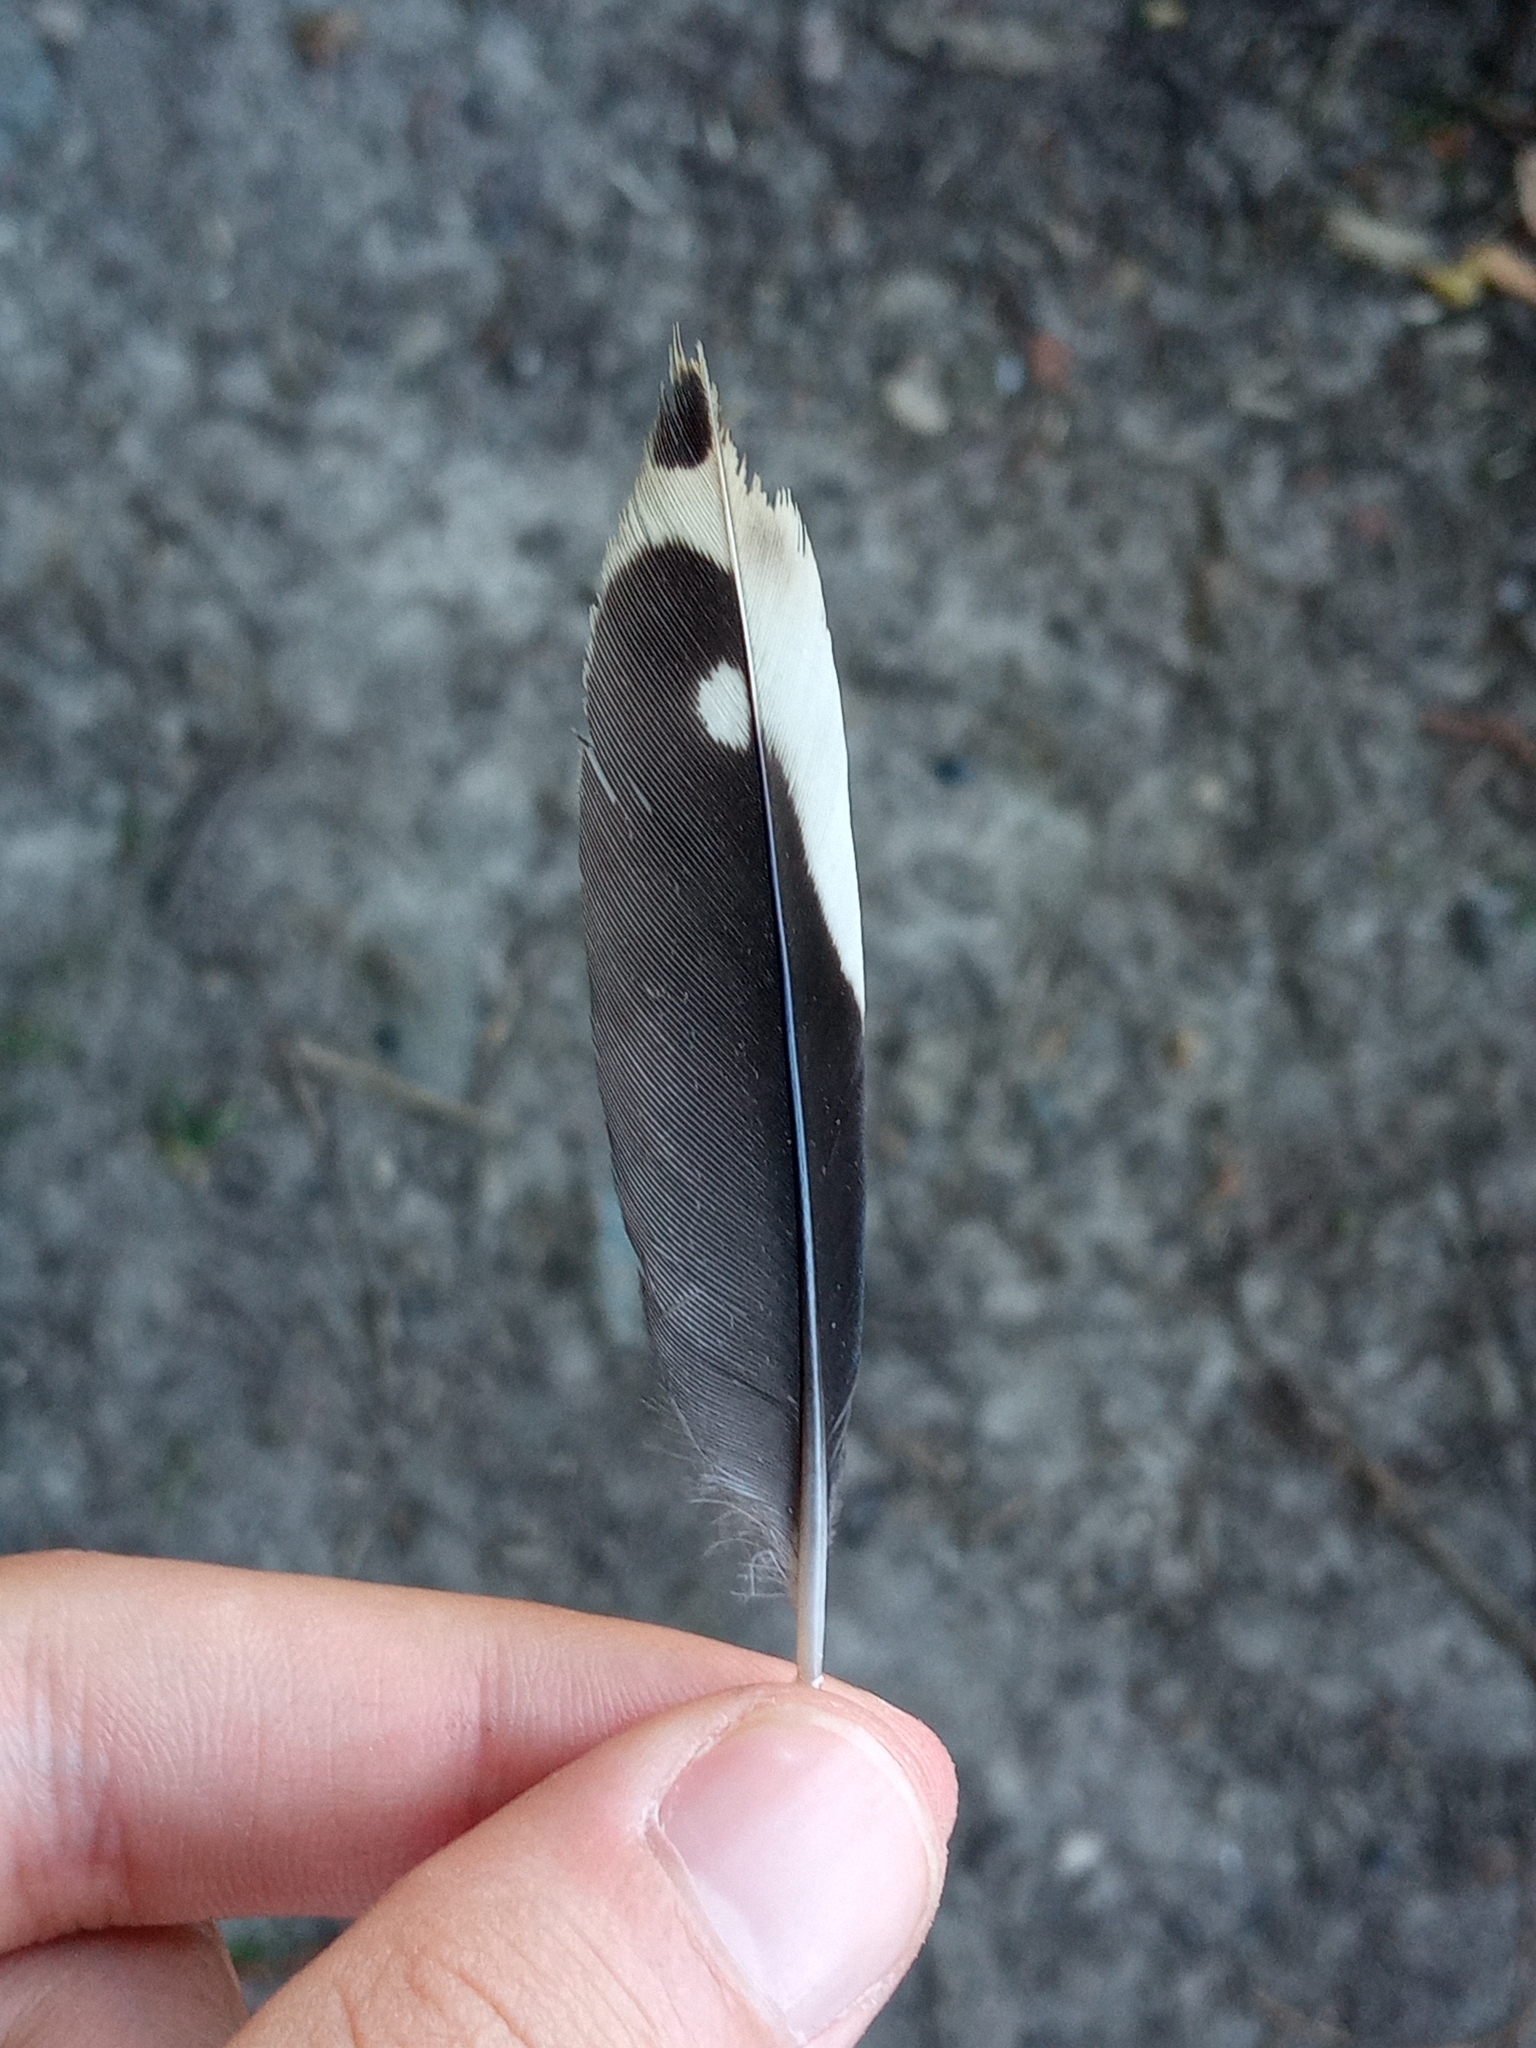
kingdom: Animalia
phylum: Chordata
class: Aves
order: Piciformes
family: Picidae
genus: Dendrocopos
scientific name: Dendrocopos major
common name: Great spotted woodpecker
